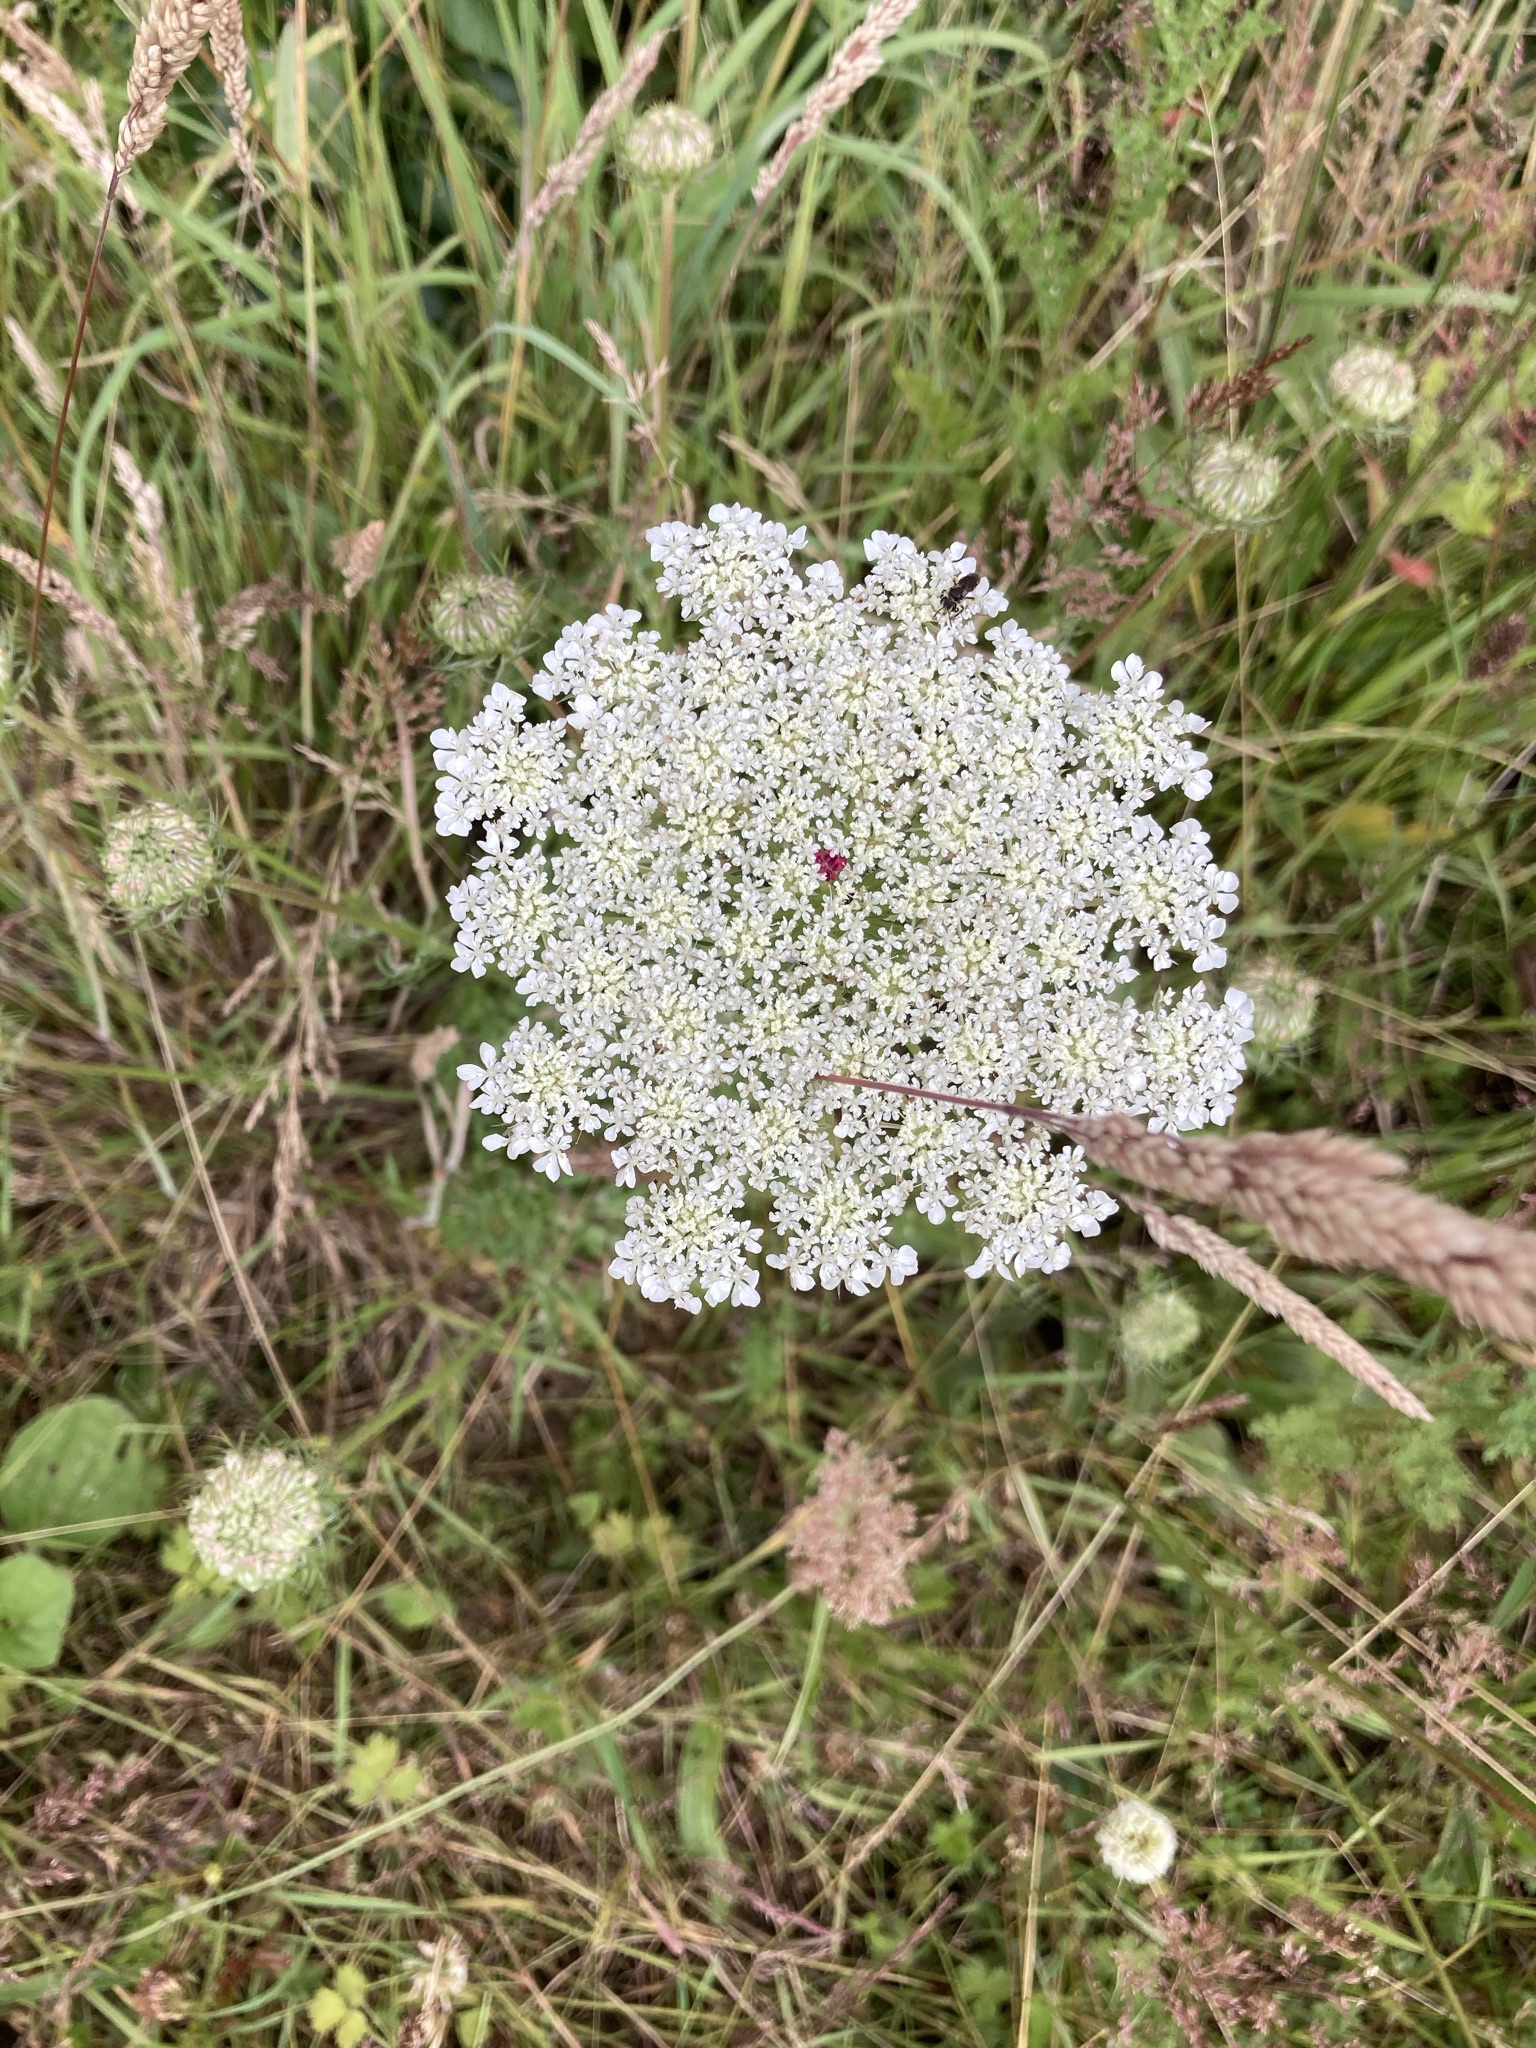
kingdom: Plantae
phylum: Tracheophyta
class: Magnoliopsida
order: Apiales
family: Apiaceae
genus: Daucus
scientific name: Daucus carota
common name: Wild carrot
